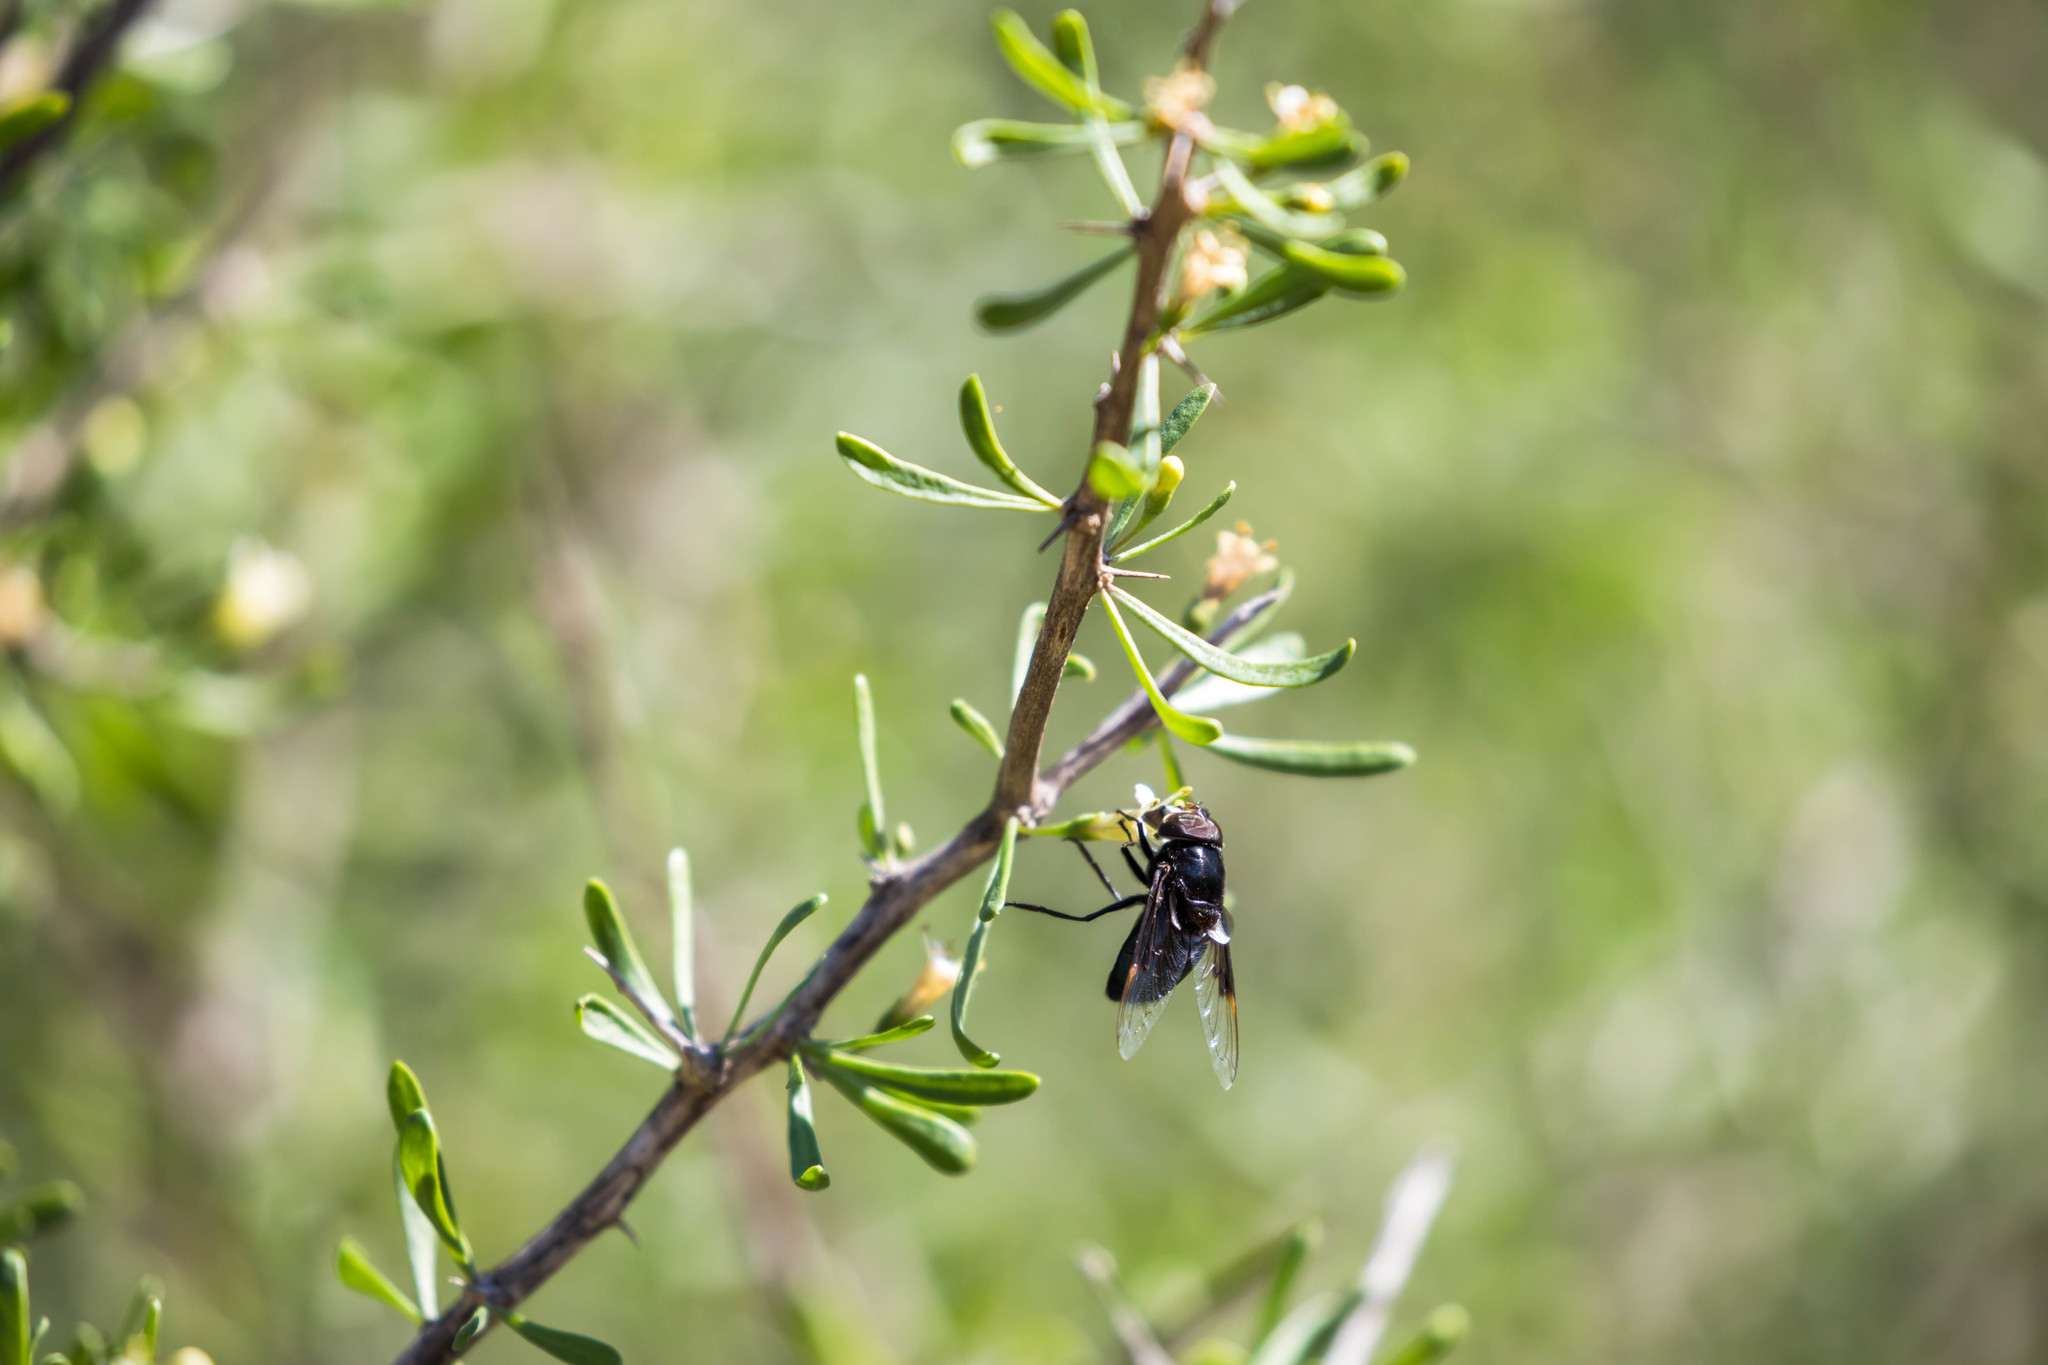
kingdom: Animalia
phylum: Arthropoda
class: Insecta
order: Diptera
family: Syrphidae
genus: Copestylum
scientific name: Copestylum mexicanum
